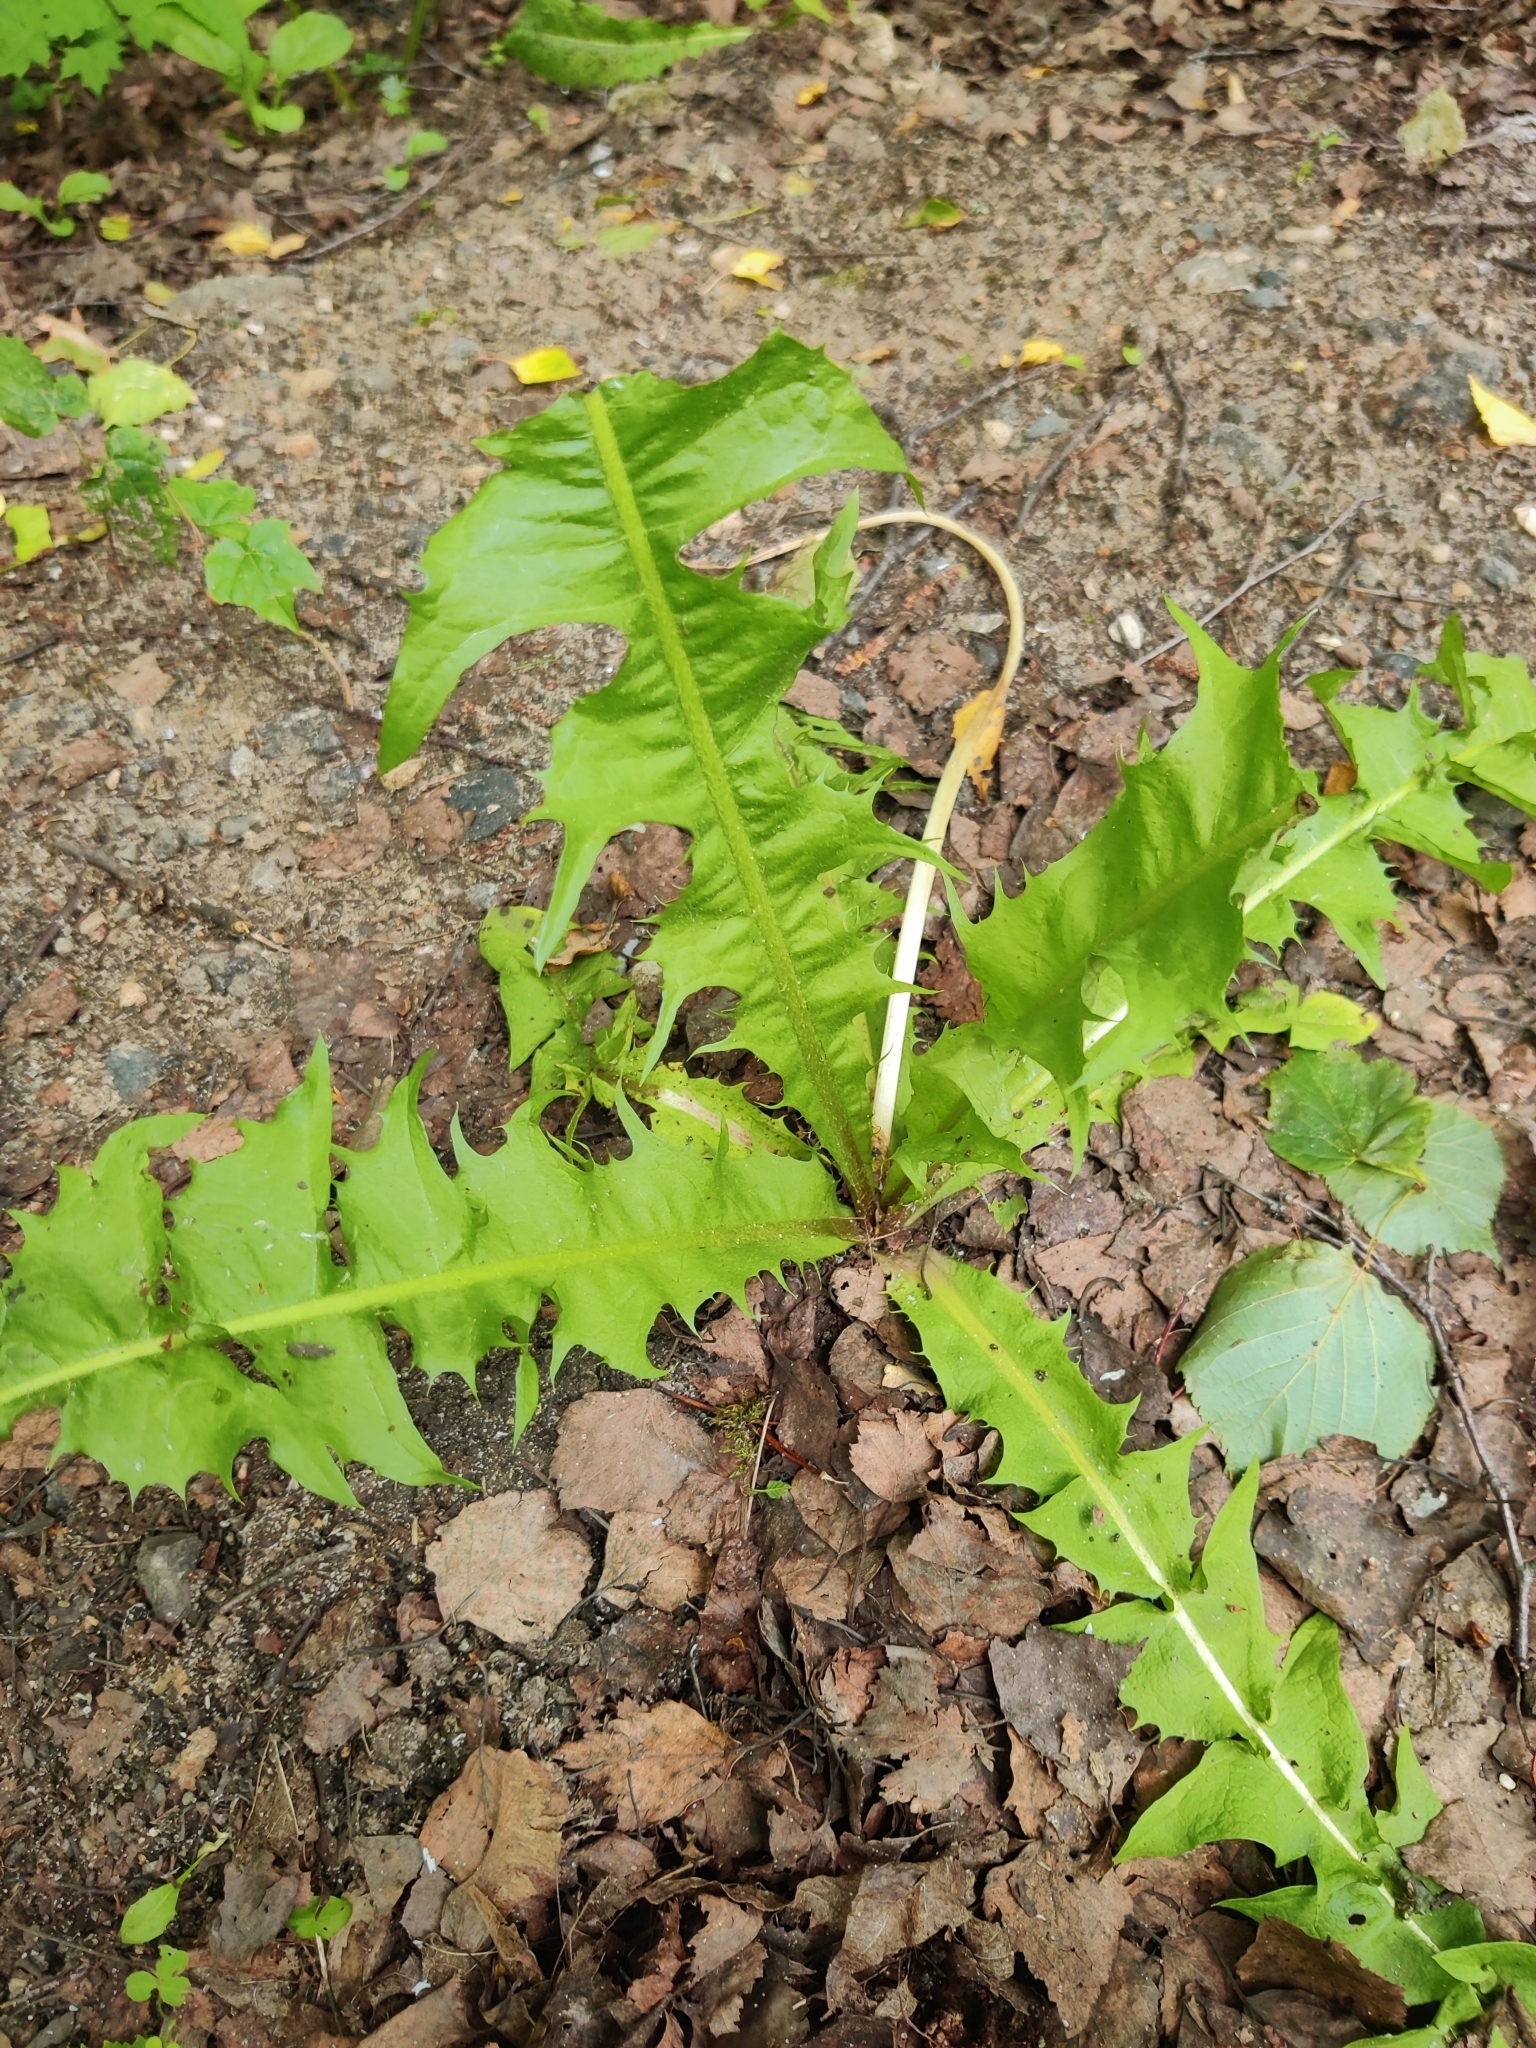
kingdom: Plantae
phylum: Tracheophyta
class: Magnoliopsida
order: Asterales
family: Asteraceae
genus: Taraxacum
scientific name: Taraxacum officinale
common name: Common dandelion
